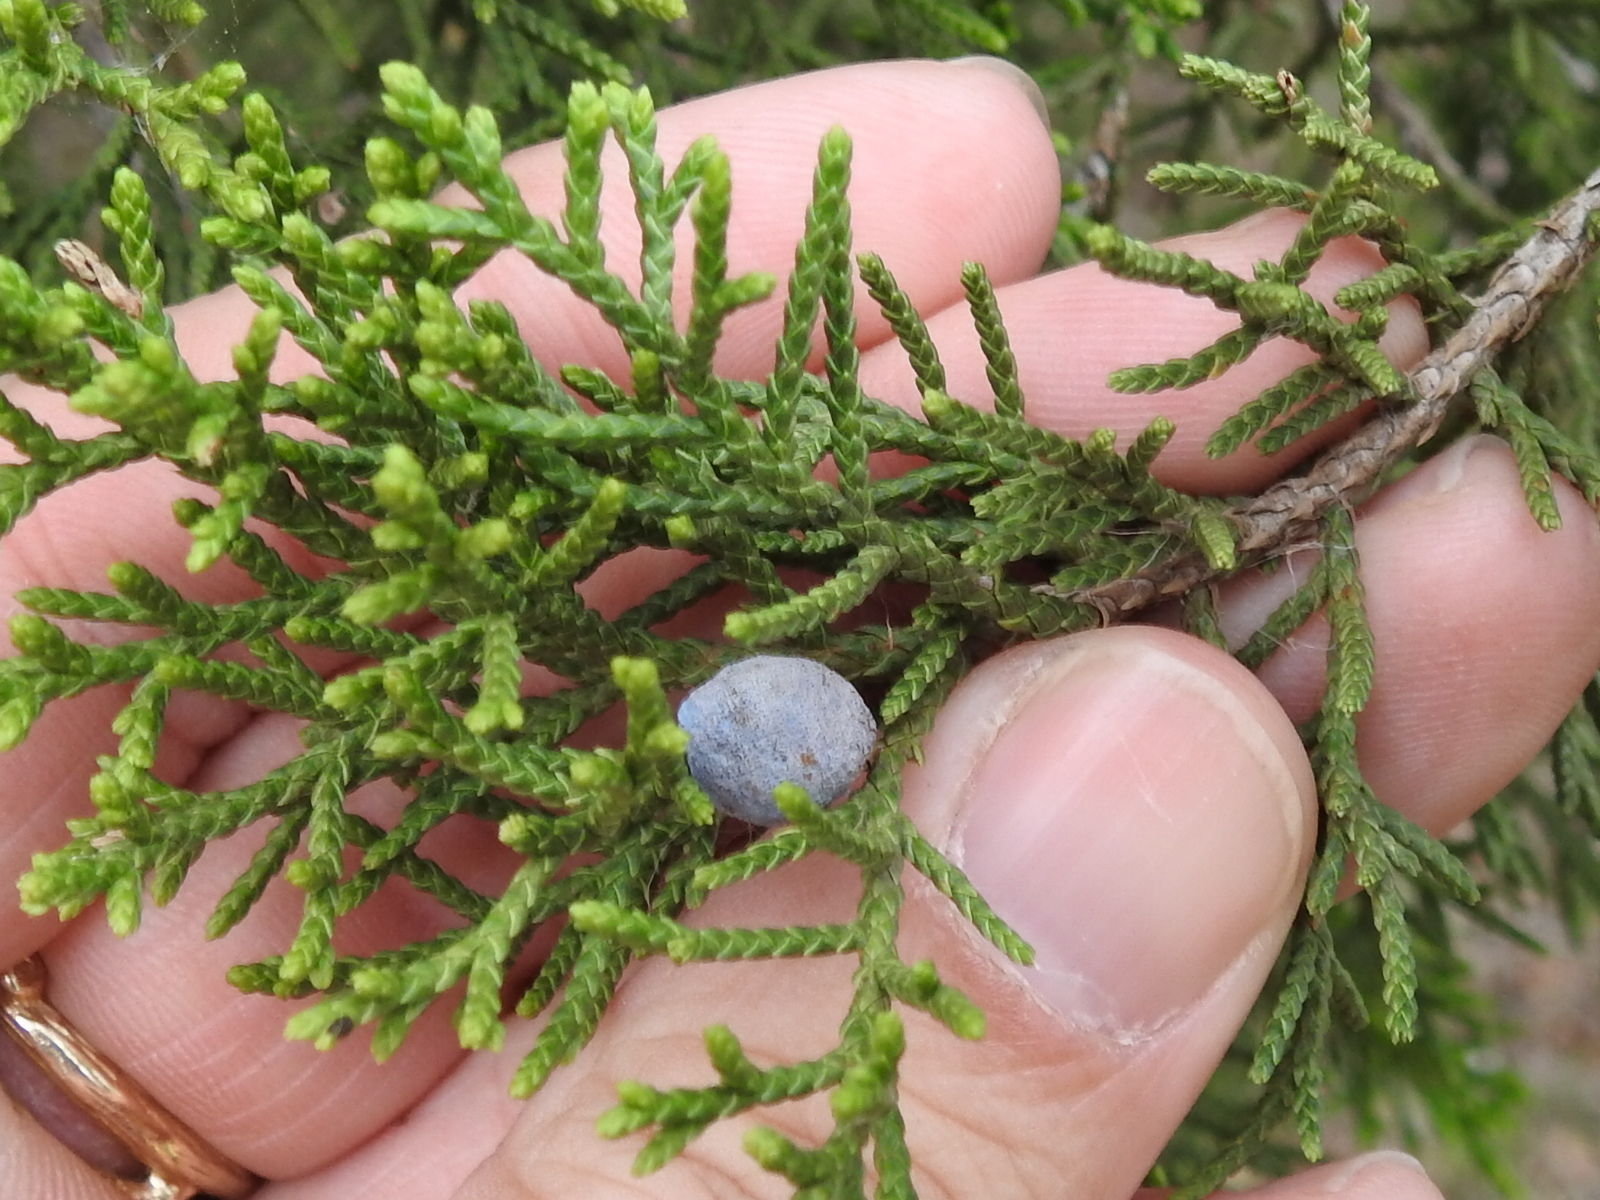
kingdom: Plantae
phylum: Tracheophyta
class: Pinopsida
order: Pinales
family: Cupressaceae
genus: Juniperus
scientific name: Juniperus ashei
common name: Mexican juniper
